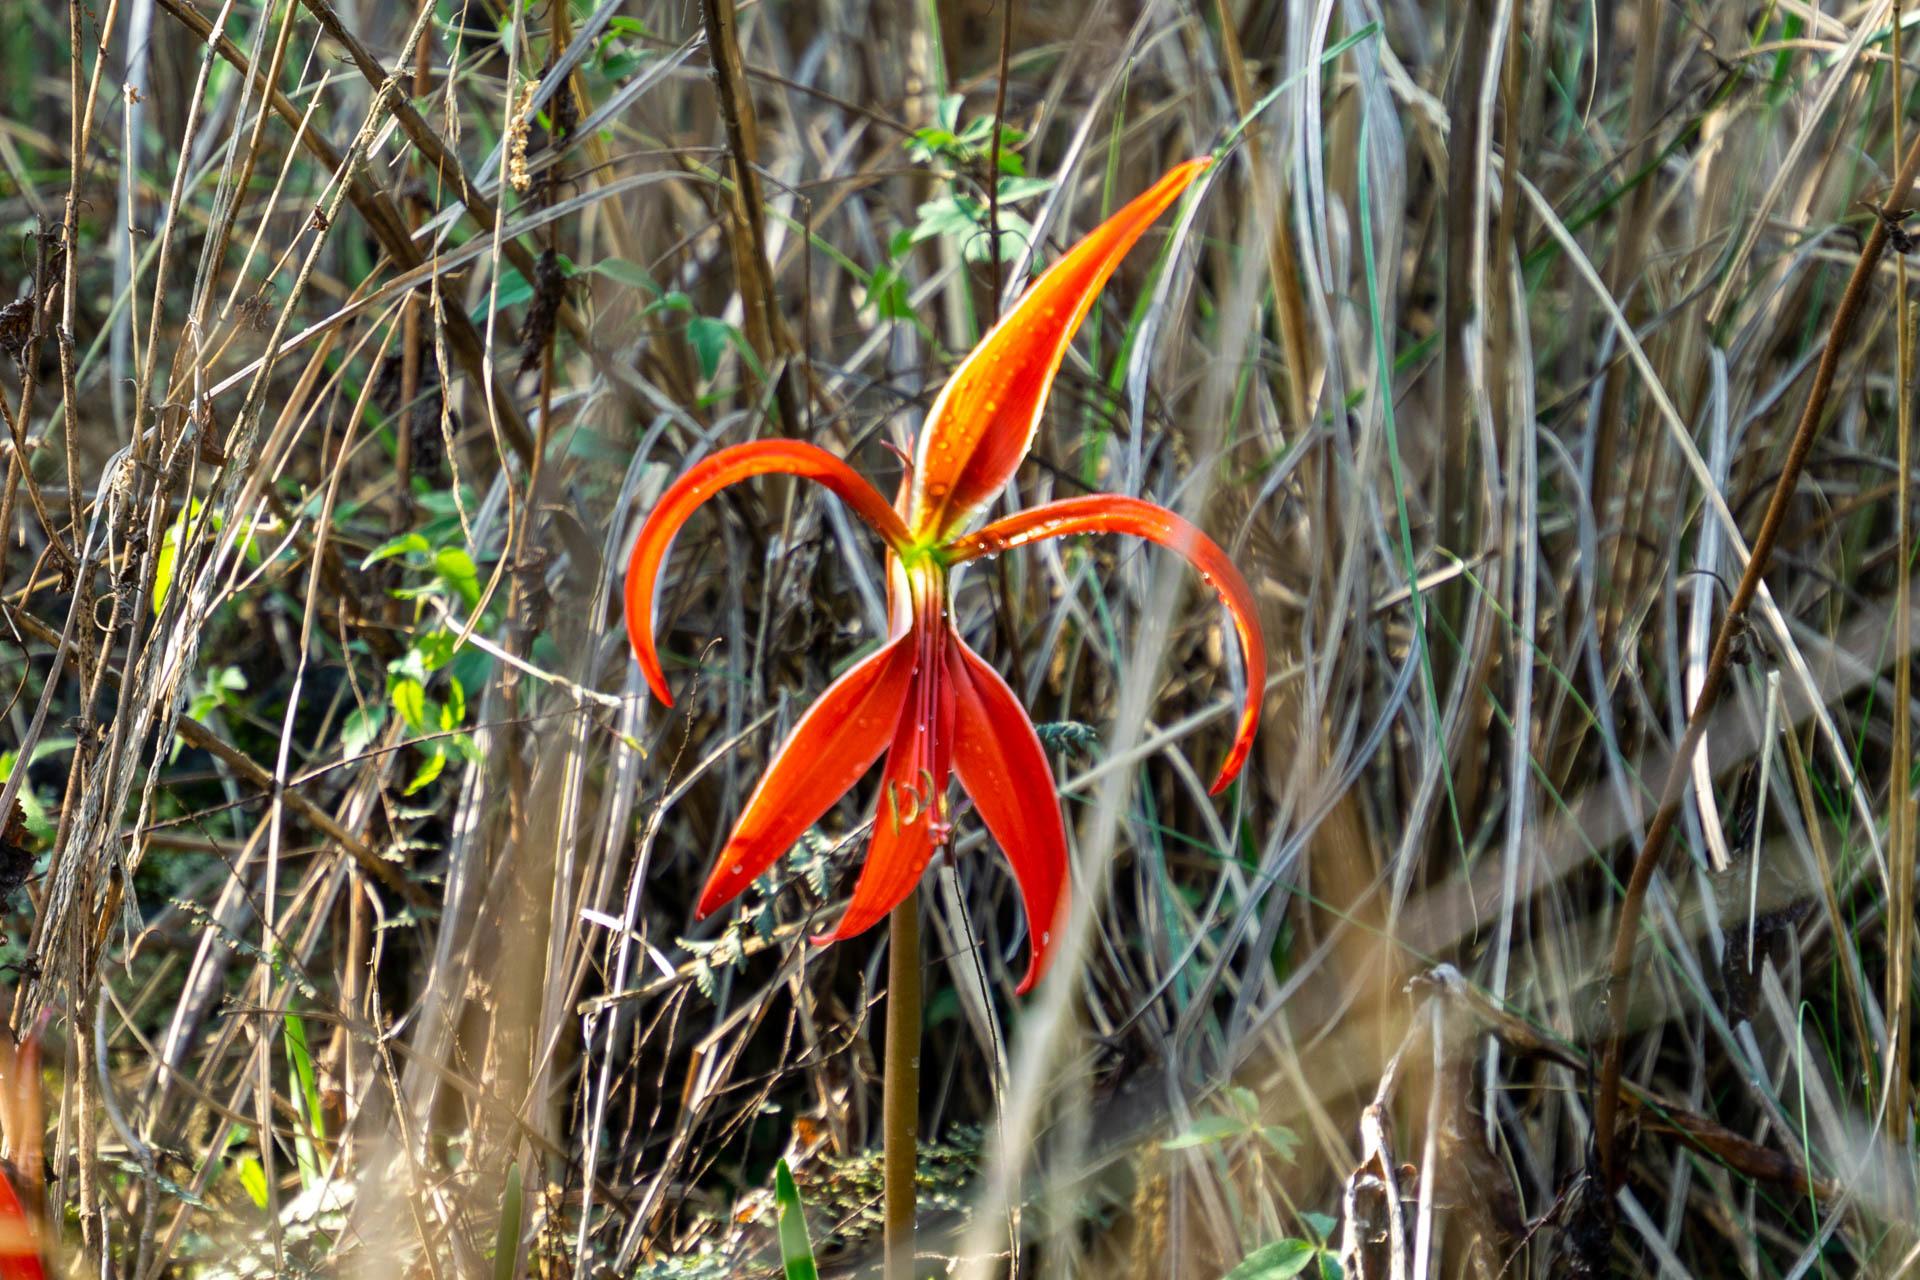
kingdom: Plantae
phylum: Tracheophyta
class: Liliopsida
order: Asparagales
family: Amaryllidaceae
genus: Sprekelia
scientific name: Sprekelia formosissima
